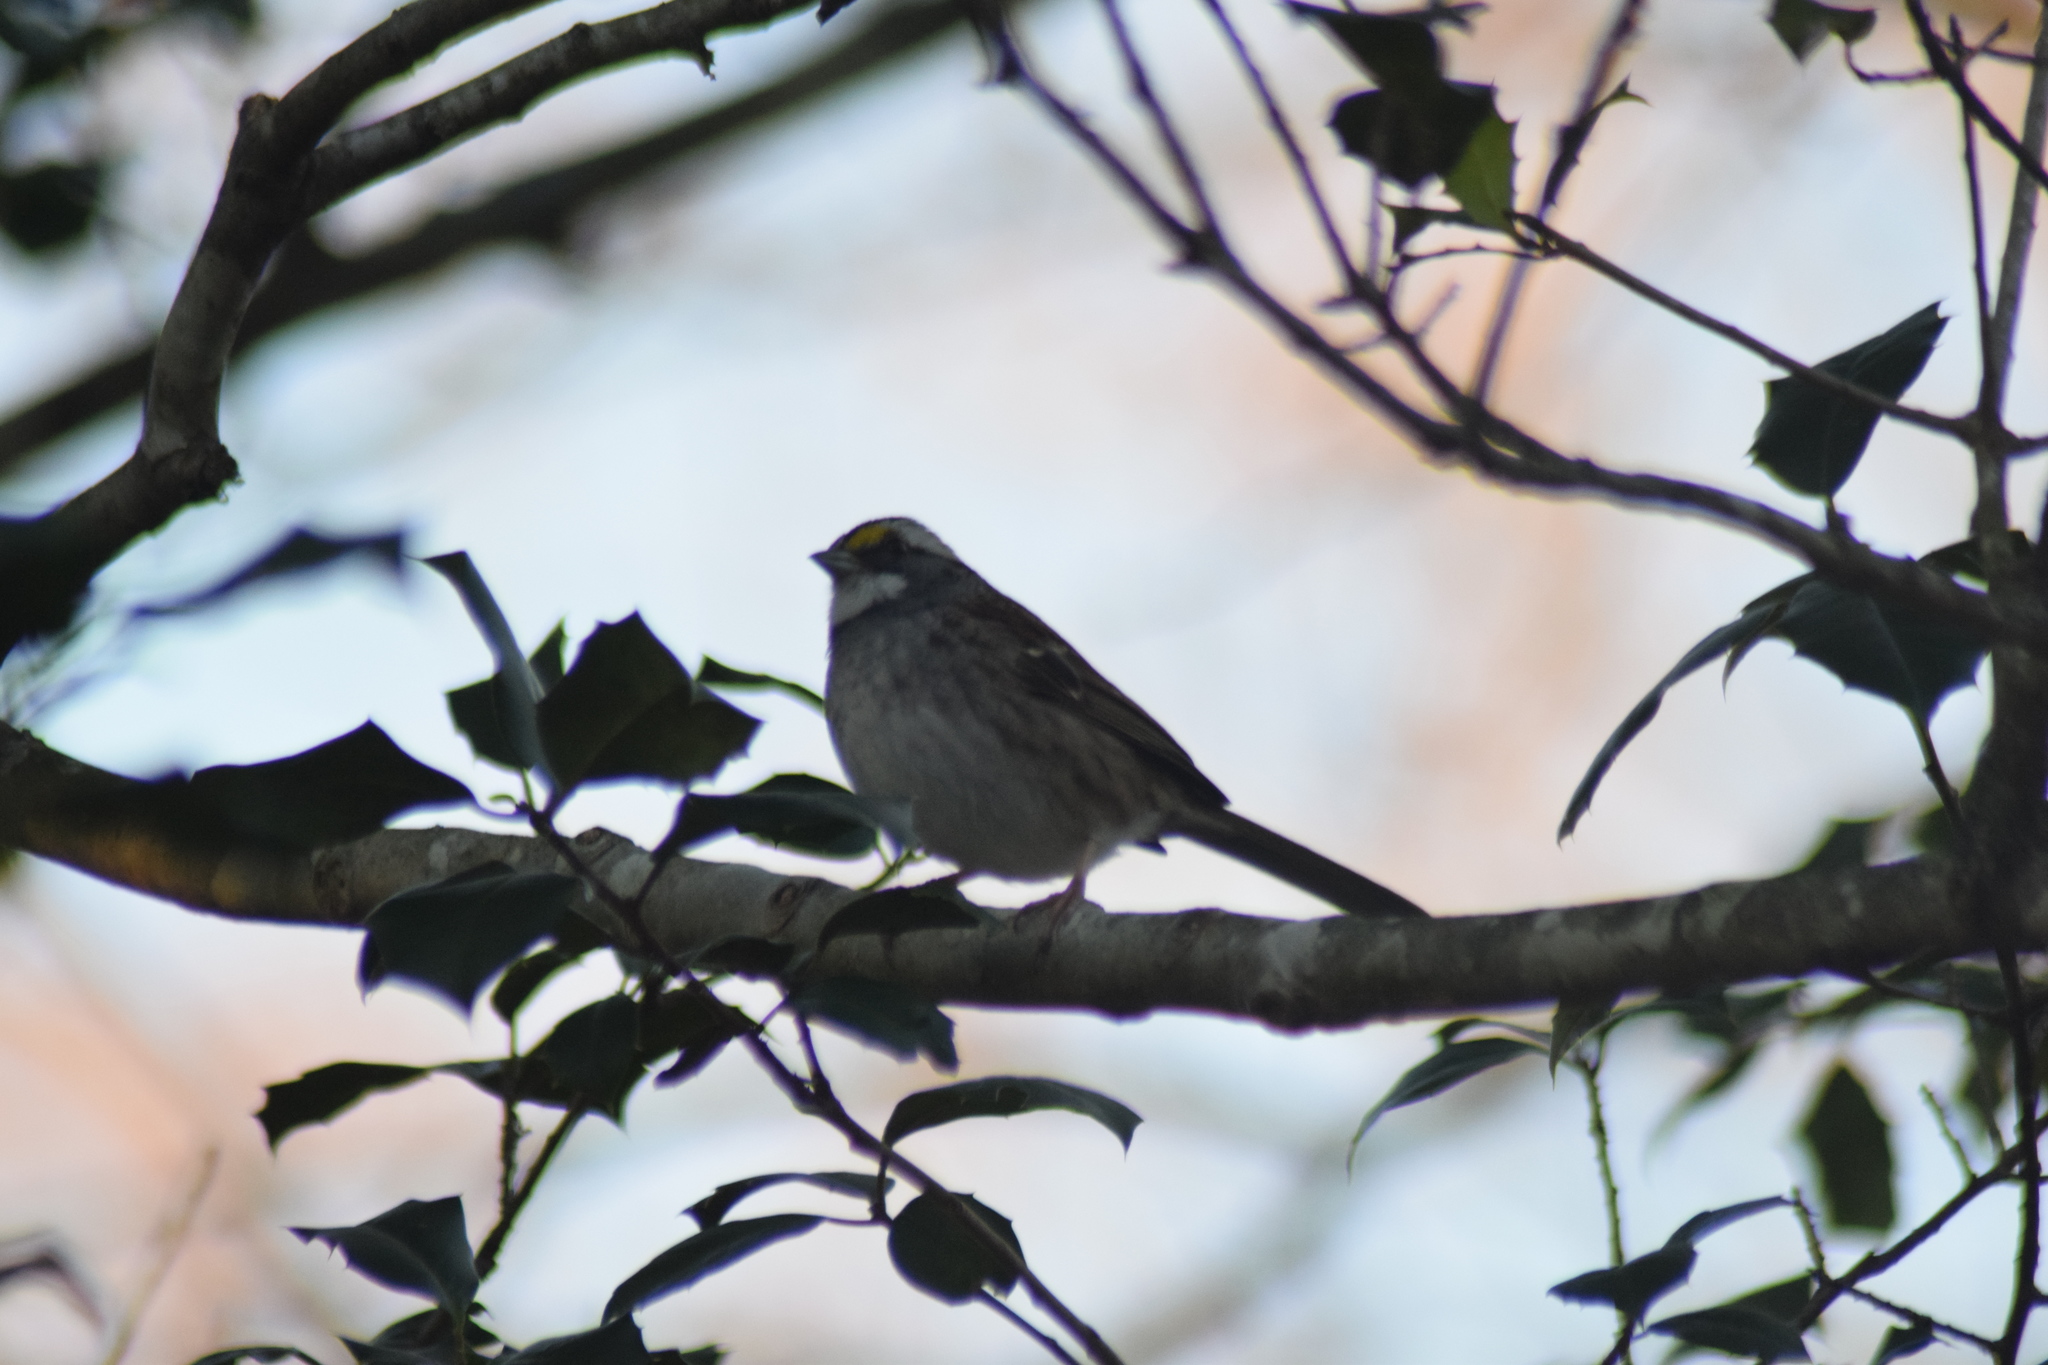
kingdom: Animalia
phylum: Chordata
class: Aves
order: Passeriformes
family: Passerellidae
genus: Zonotrichia
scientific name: Zonotrichia albicollis
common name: White-throated sparrow
